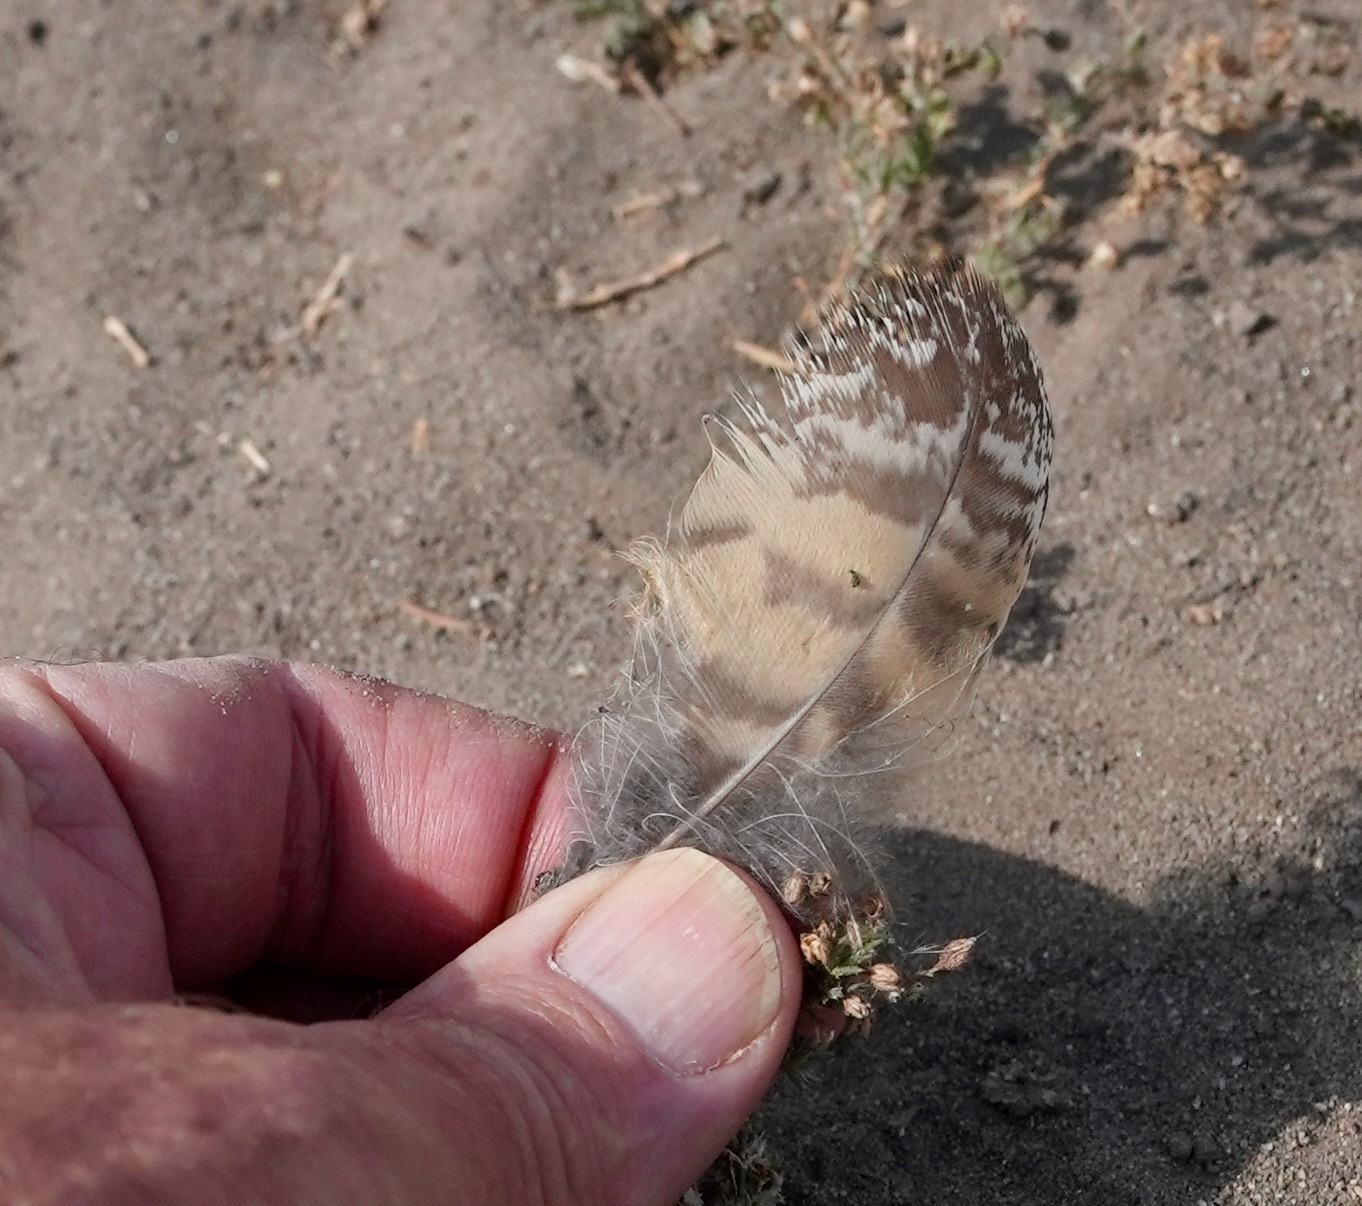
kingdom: Animalia
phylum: Chordata
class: Aves
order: Strigiformes
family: Strigidae
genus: Bubo
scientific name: Bubo virginianus
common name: Great horned owl
